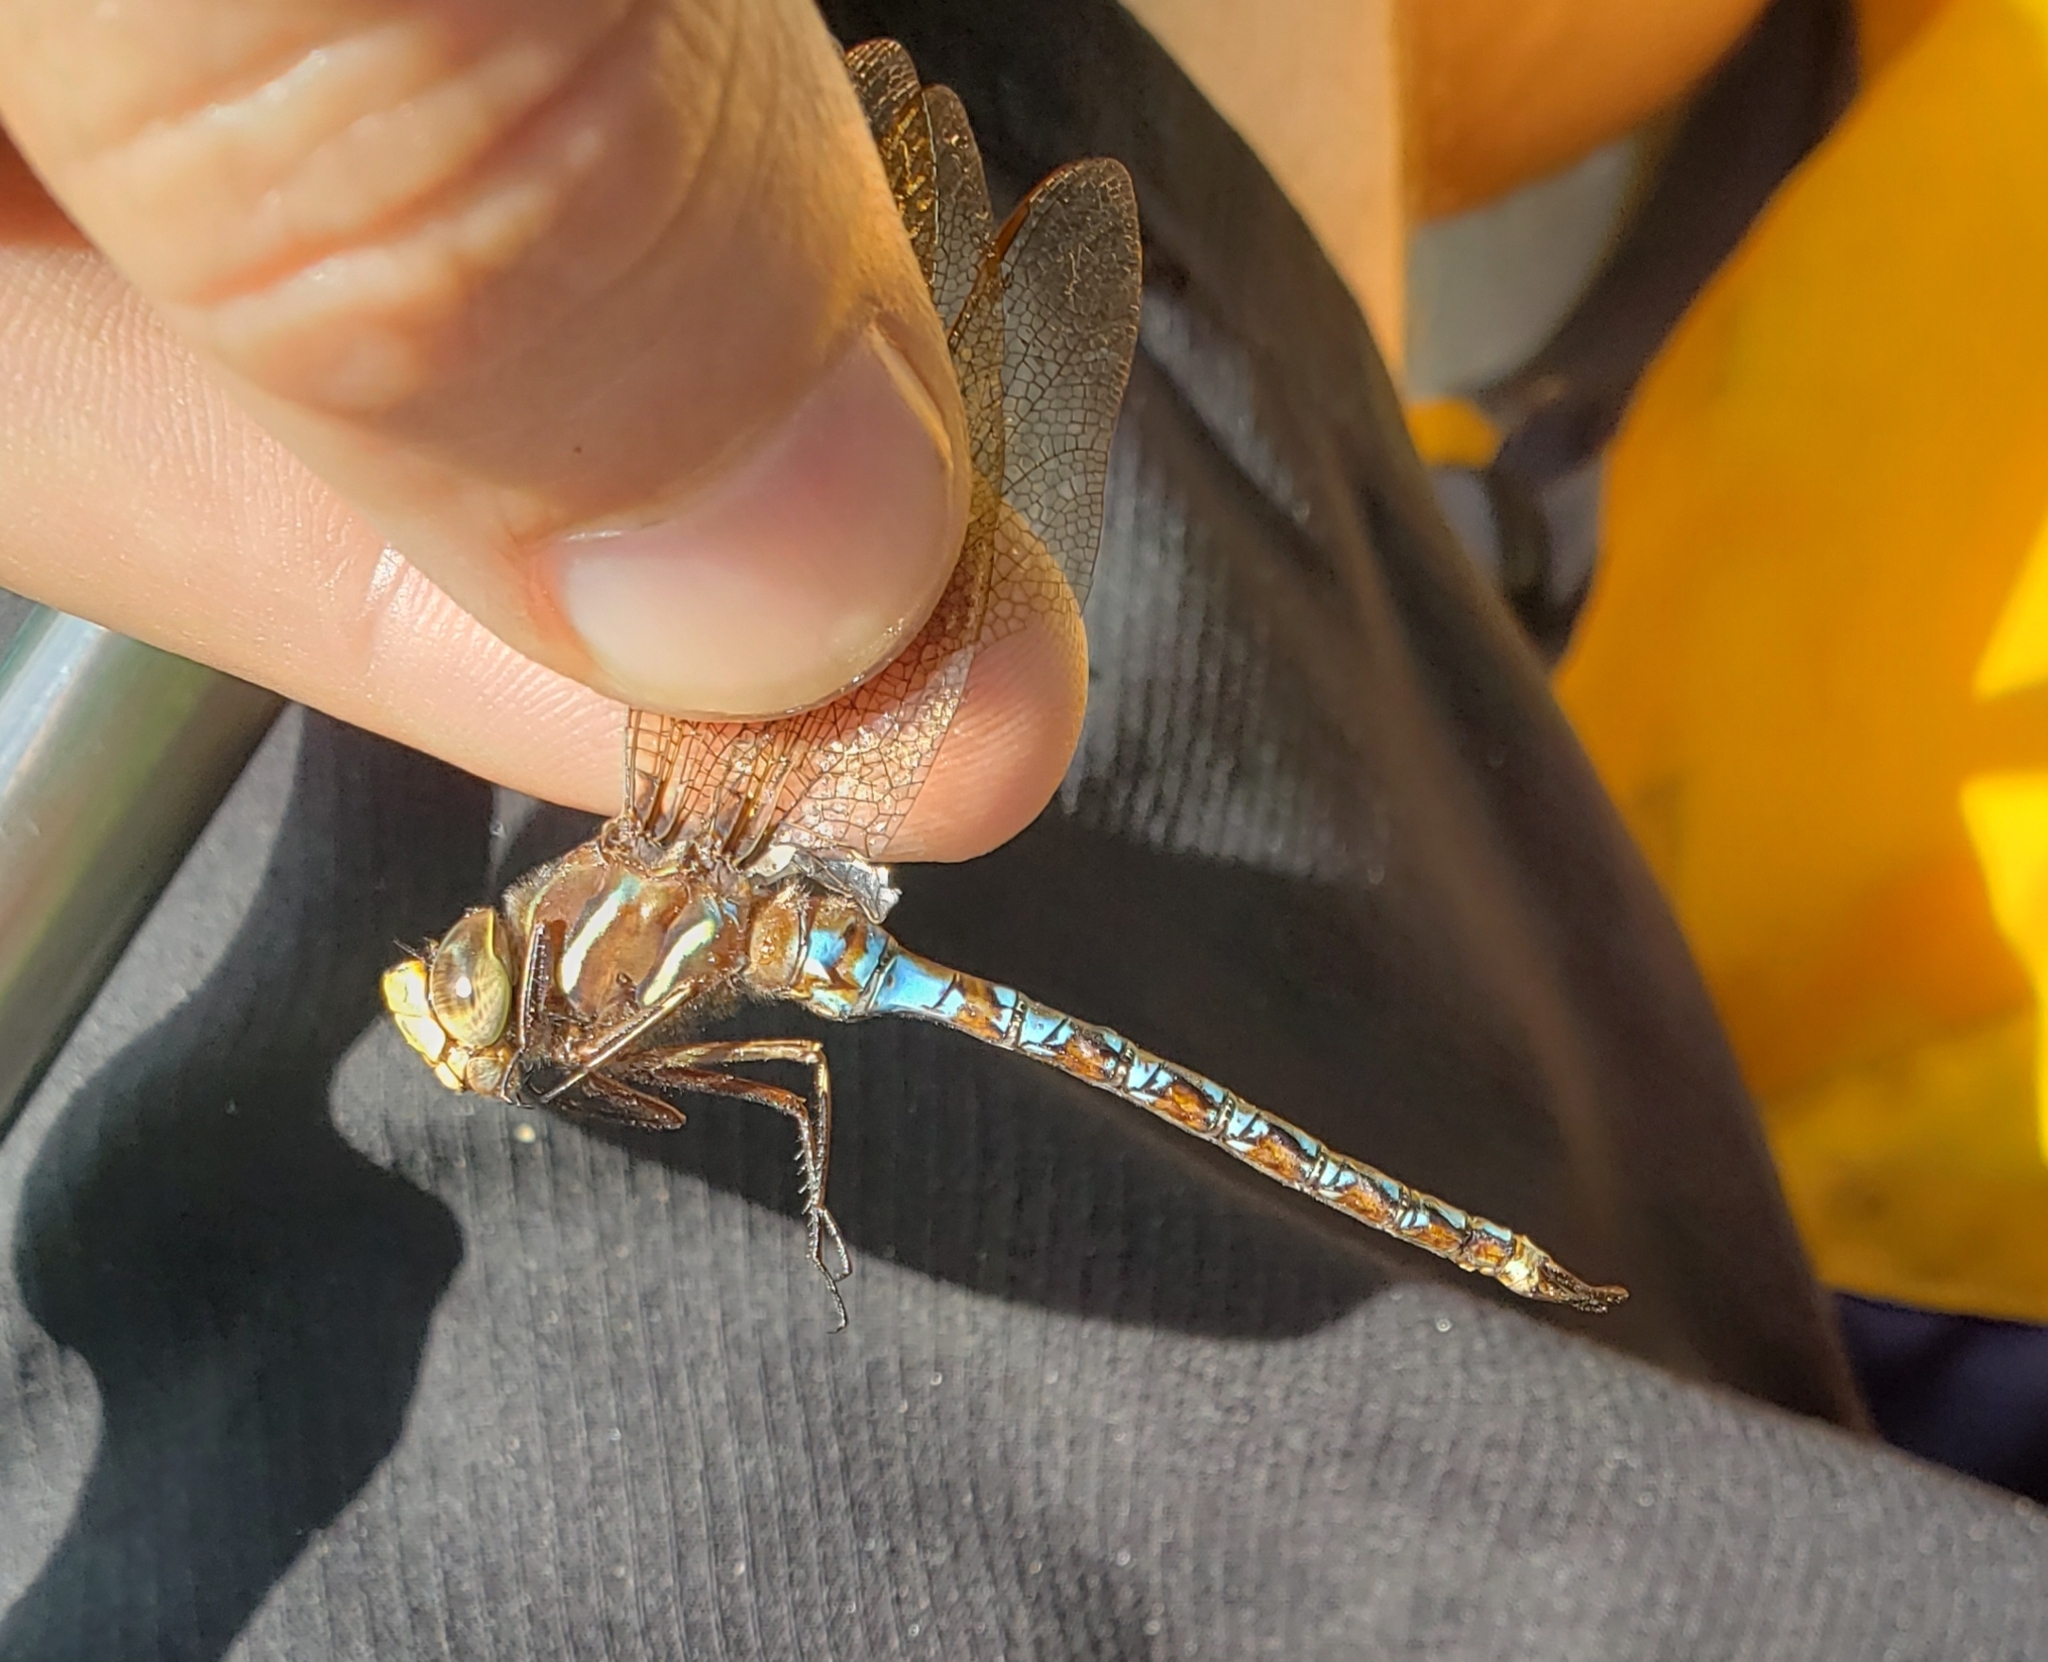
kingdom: Animalia
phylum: Arthropoda
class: Insecta
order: Odonata
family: Aeshnidae
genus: Basiaeschna
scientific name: Basiaeschna janata
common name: Springtime darner
